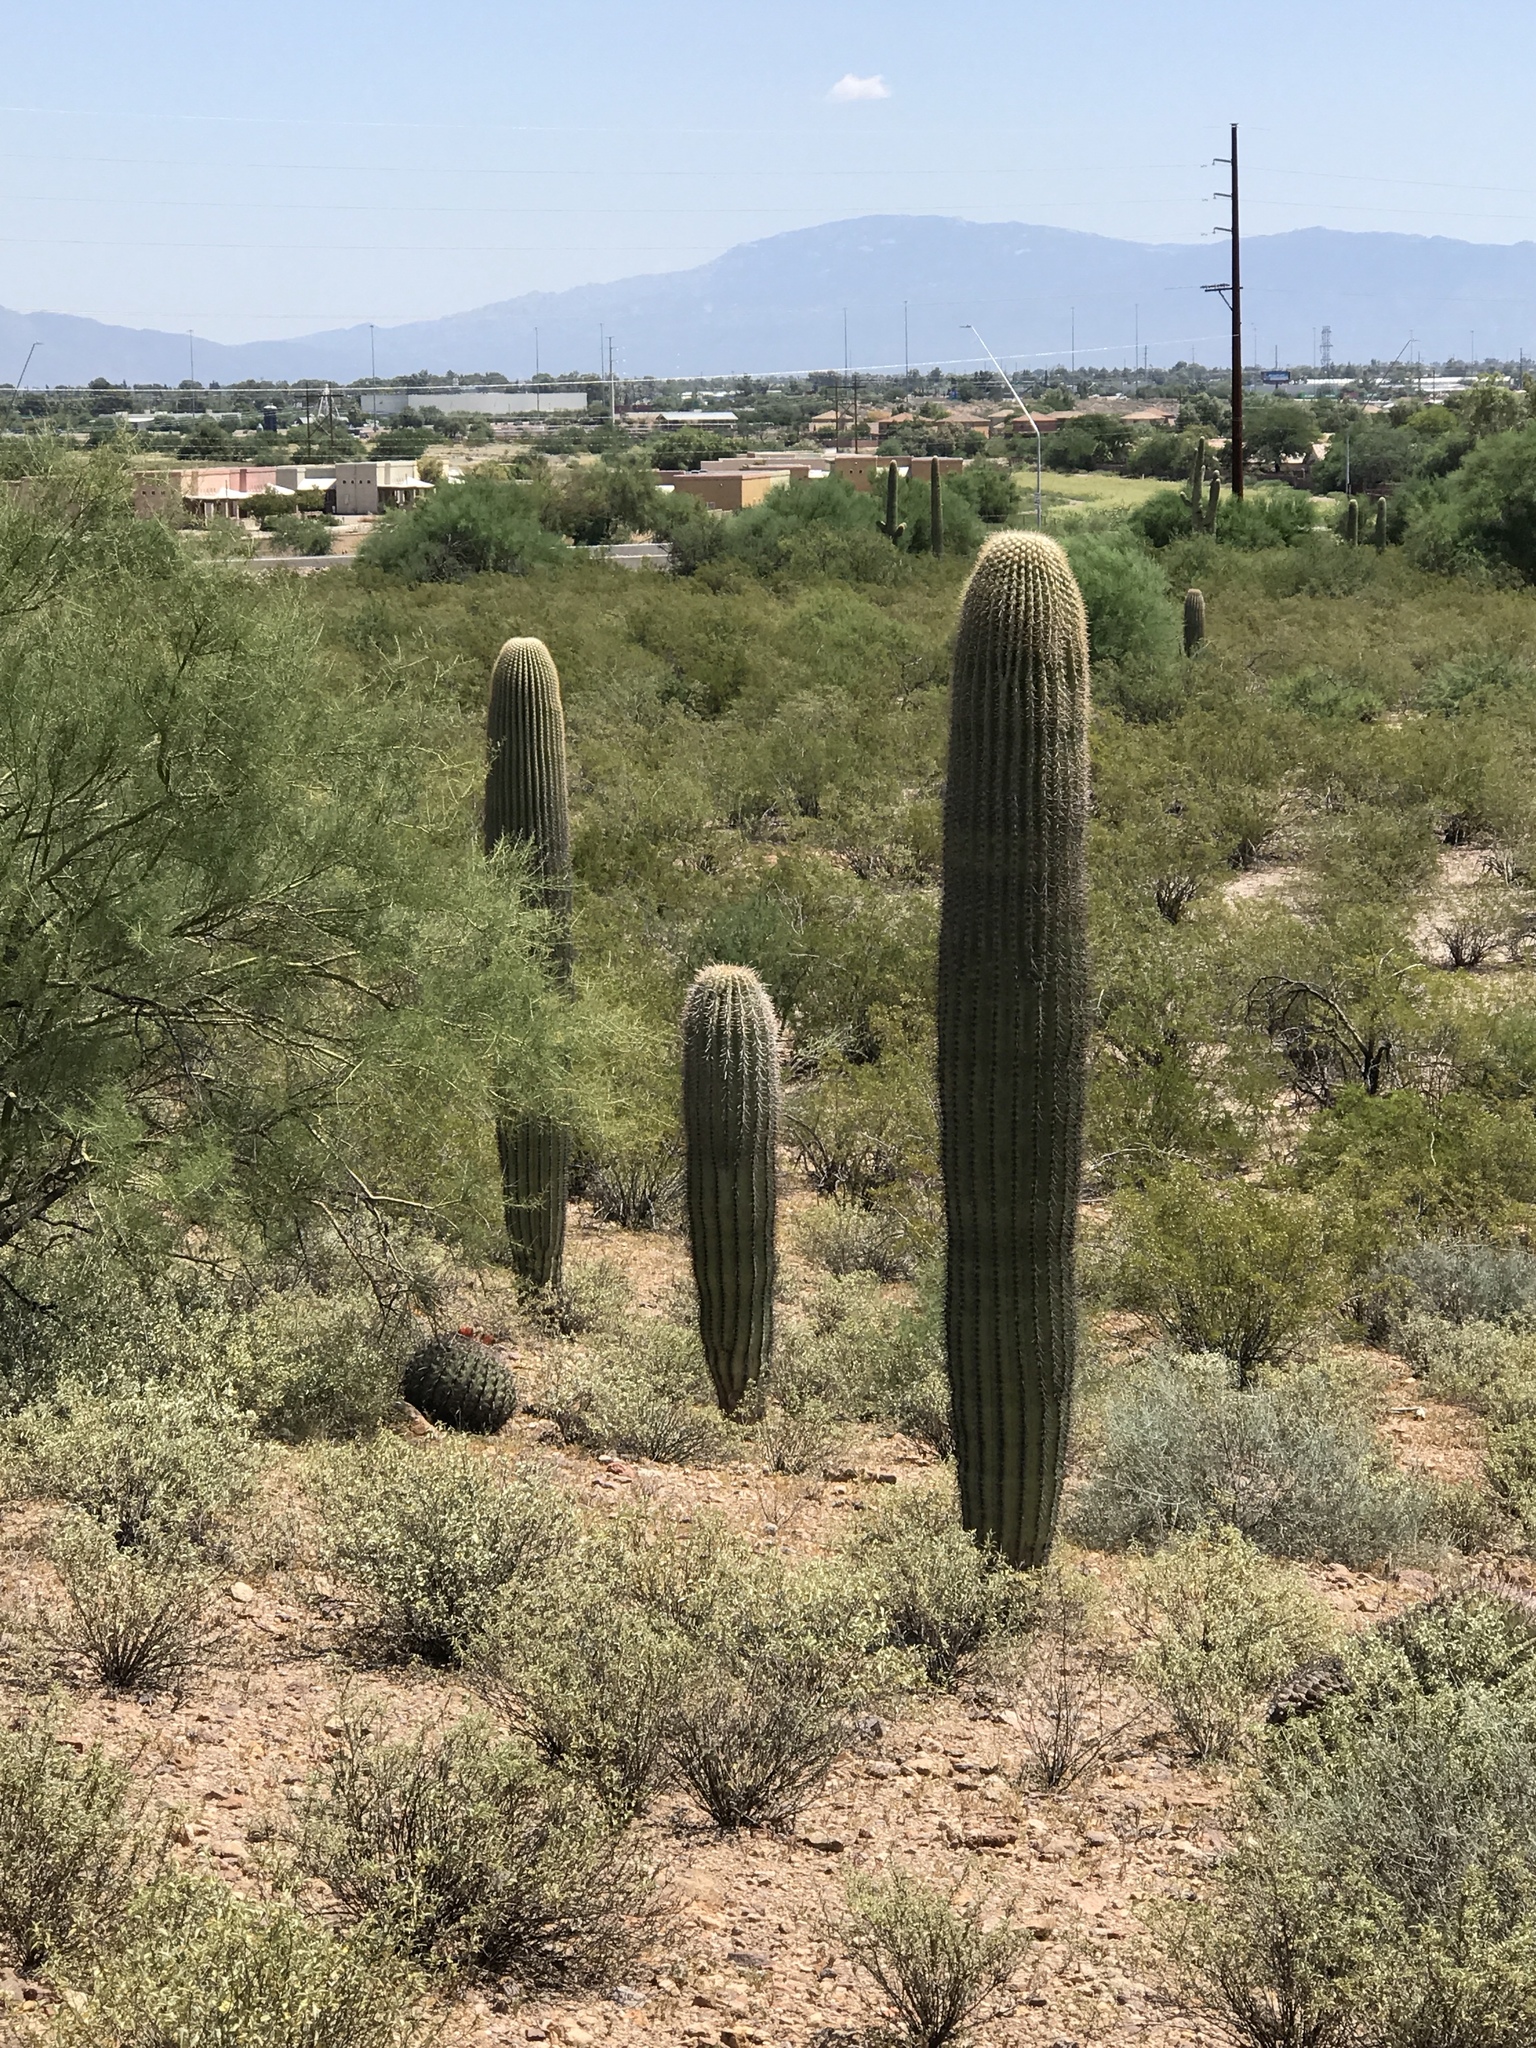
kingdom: Plantae
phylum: Tracheophyta
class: Magnoliopsida
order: Caryophyllales
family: Cactaceae
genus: Carnegiea
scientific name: Carnegiea gigantea
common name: Saguaro
